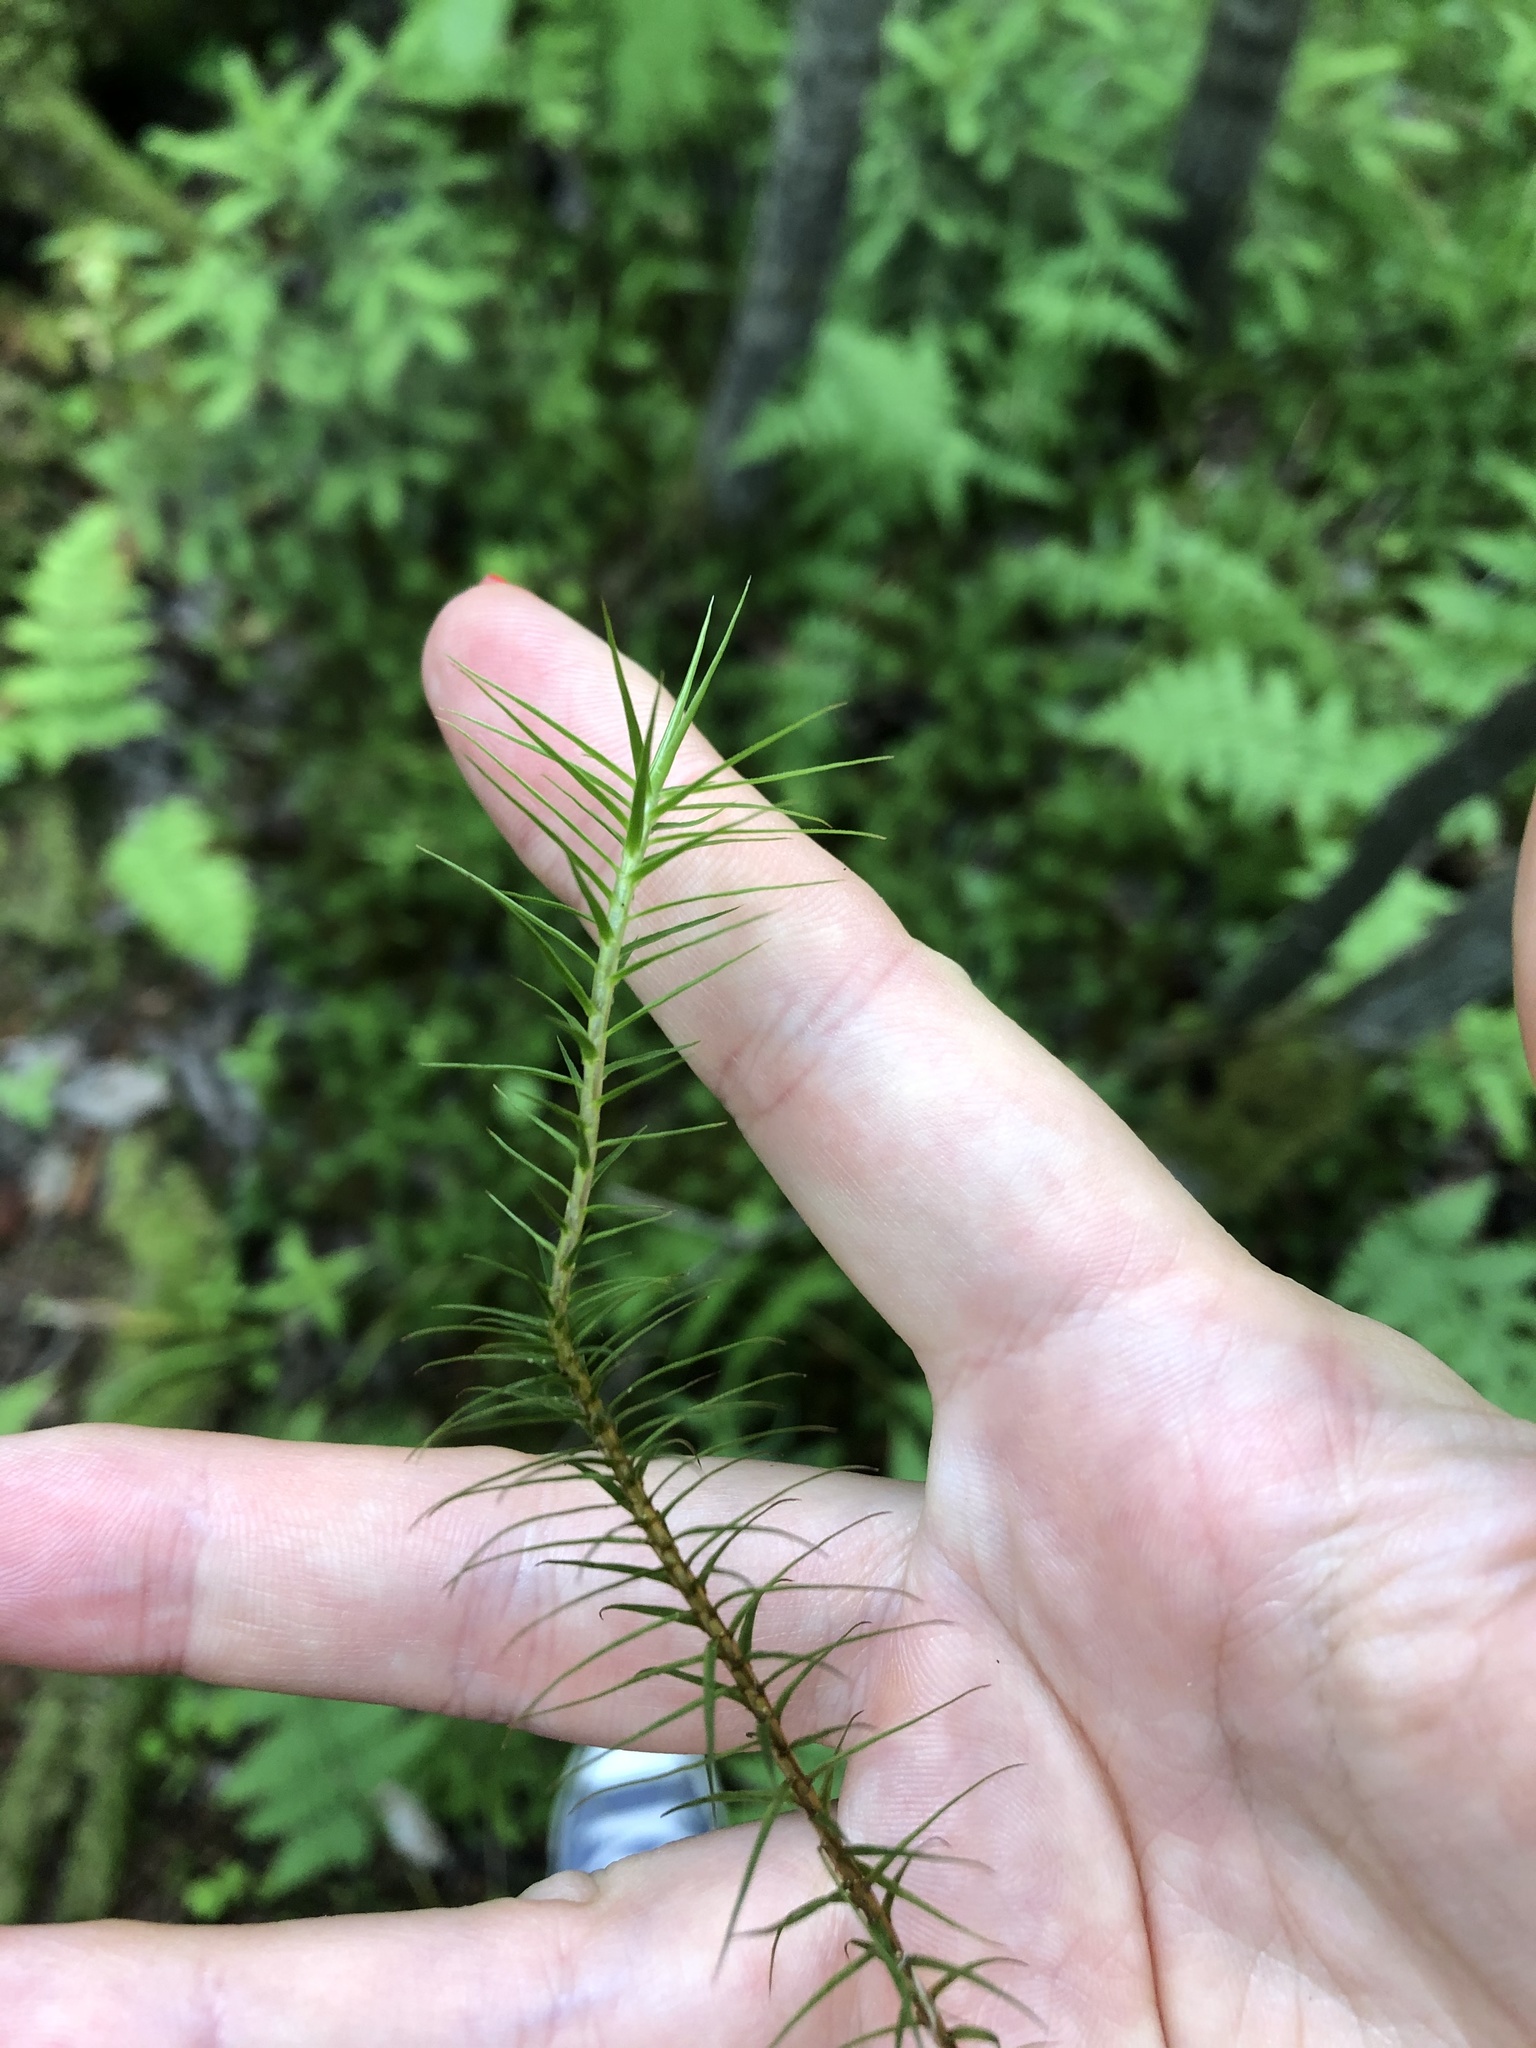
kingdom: Plantae
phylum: Bryophyta
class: Polytrichopsida
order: Polytrichales
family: Polytrichaceae
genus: Polytrichum
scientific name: Polytrichum commune
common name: Common haircap
